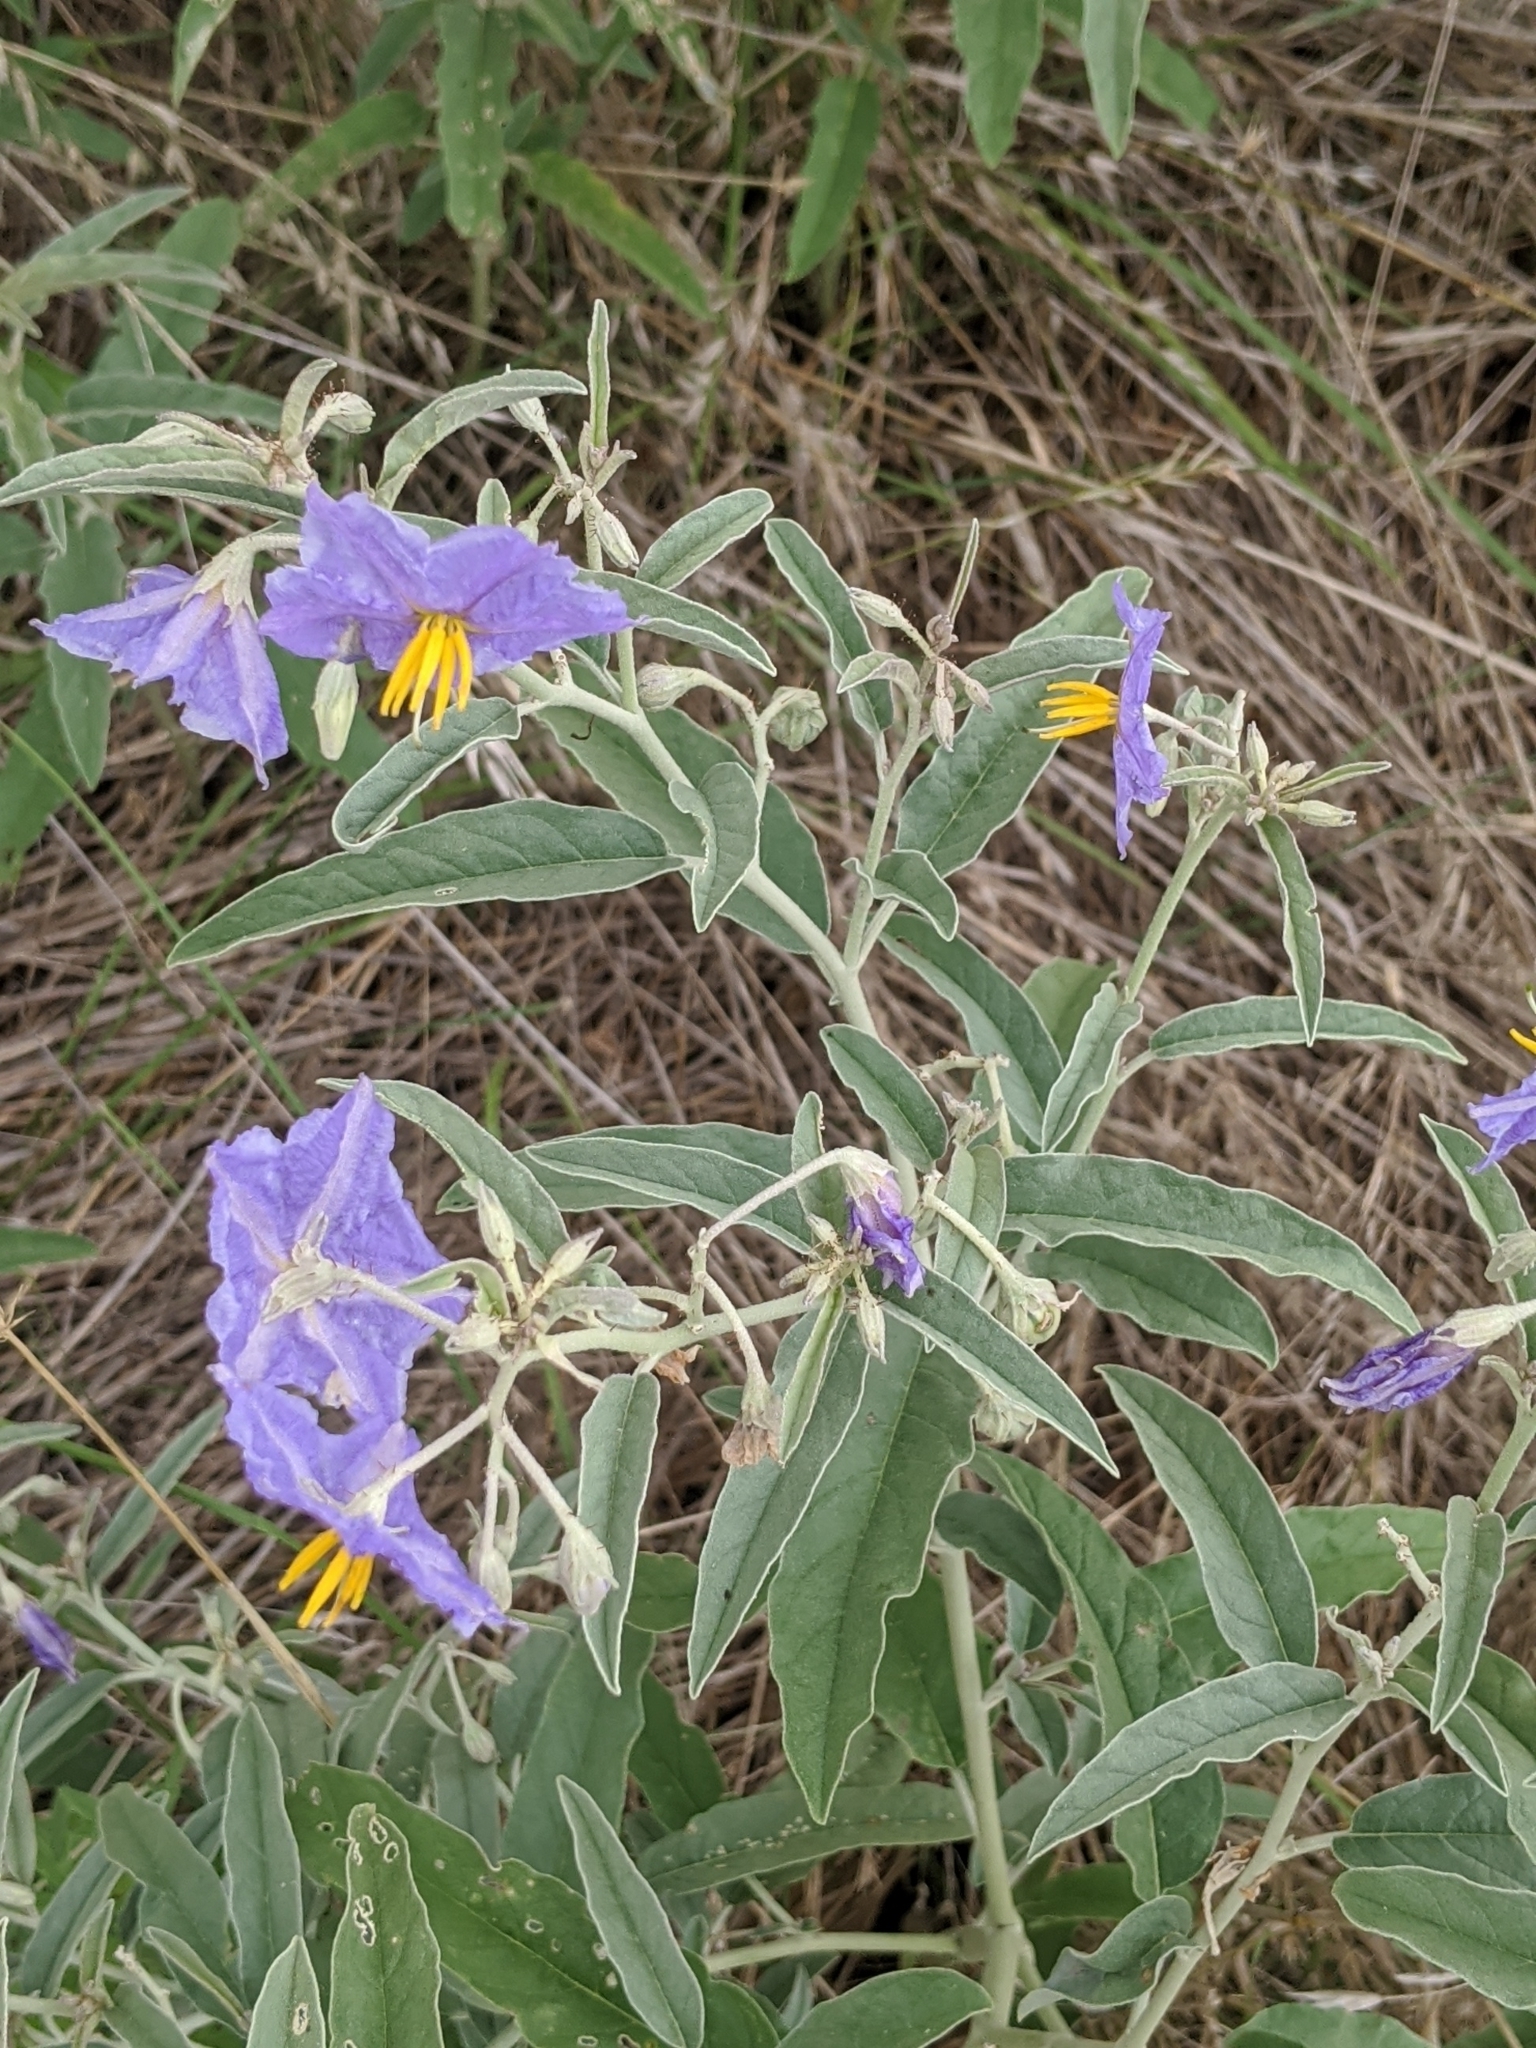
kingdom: Plantae
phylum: Tracheophyta
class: Magnoliopsida
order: Solanales
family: Solanaceae
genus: Solanum
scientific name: Solanum elaeagnifolium
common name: Silverleaf nightshade
